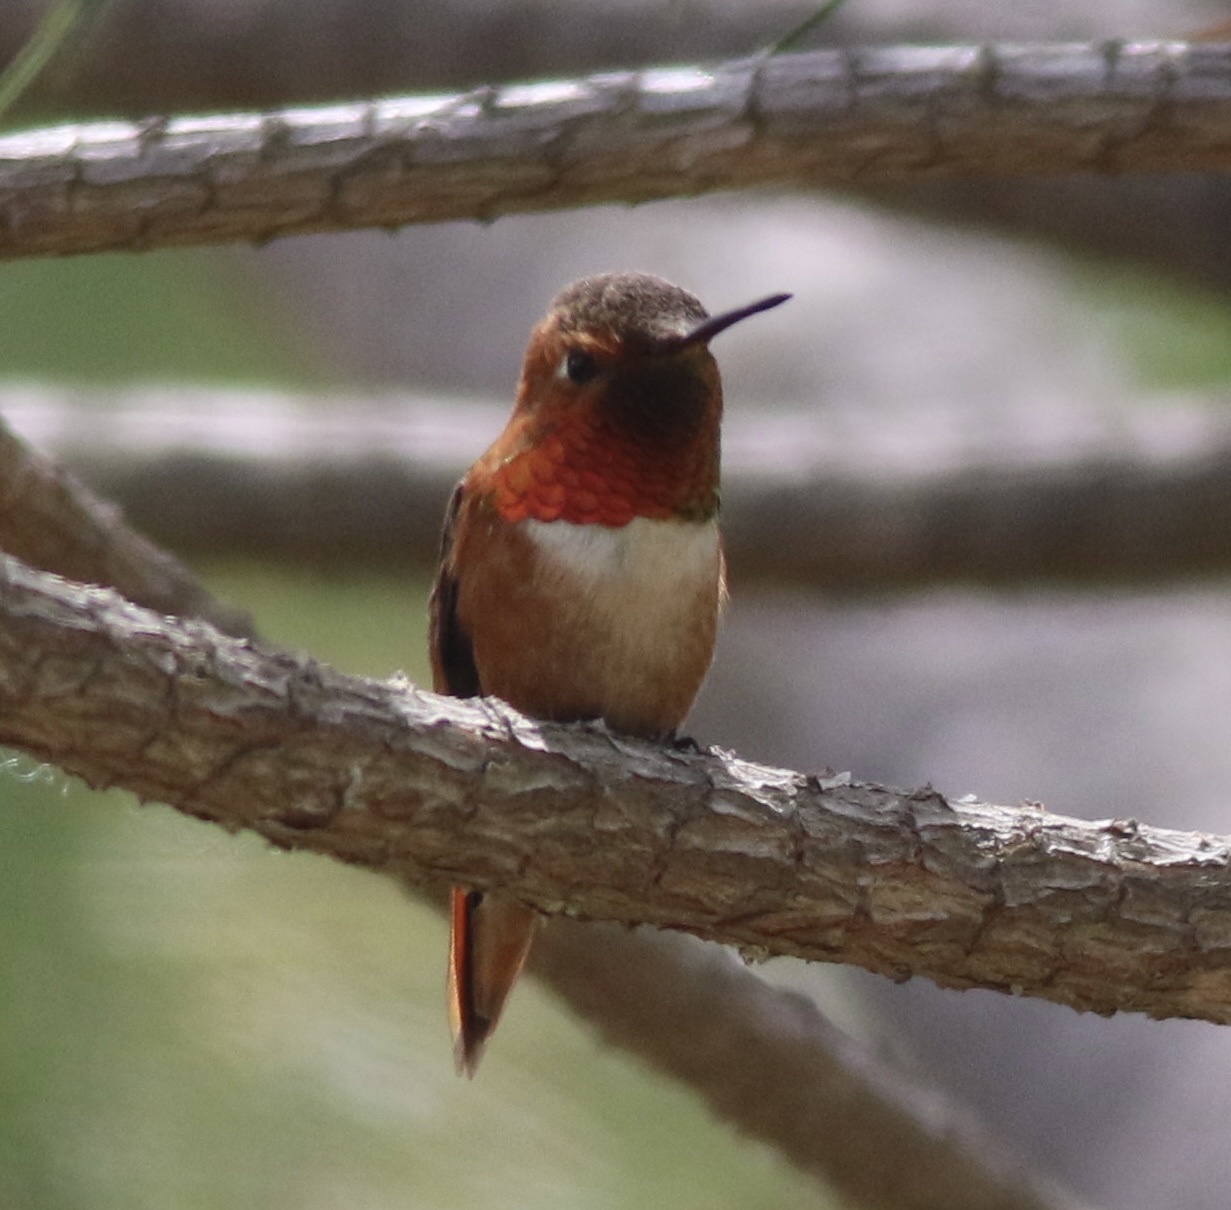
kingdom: Animalia
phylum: Chordata
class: Aves
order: Apodiformes
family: Trochilidae
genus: Selasphorus
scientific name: Selasphorus
